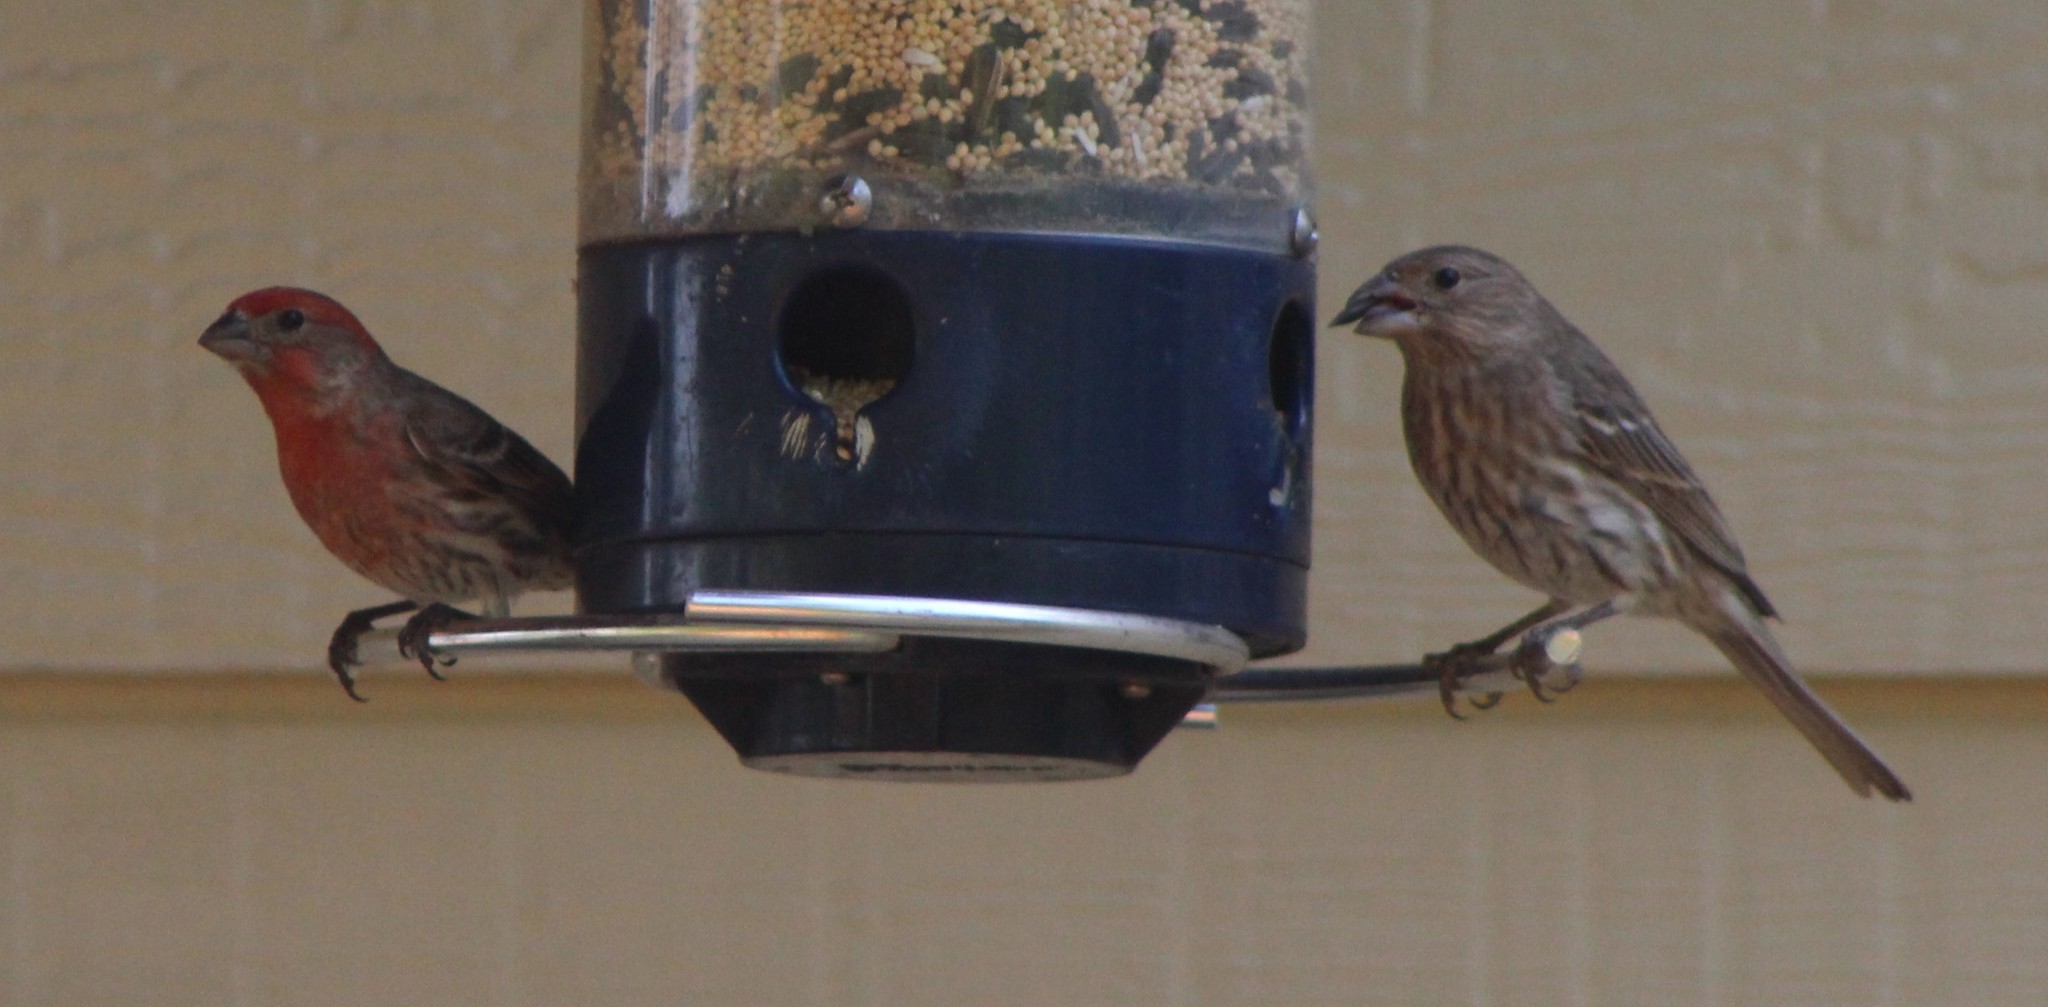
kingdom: Animalia
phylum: Chordata
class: Aves
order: Passeriformes
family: Fringillidae
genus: Haemorhous
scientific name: Haemorhous mexicanus
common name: House finch
